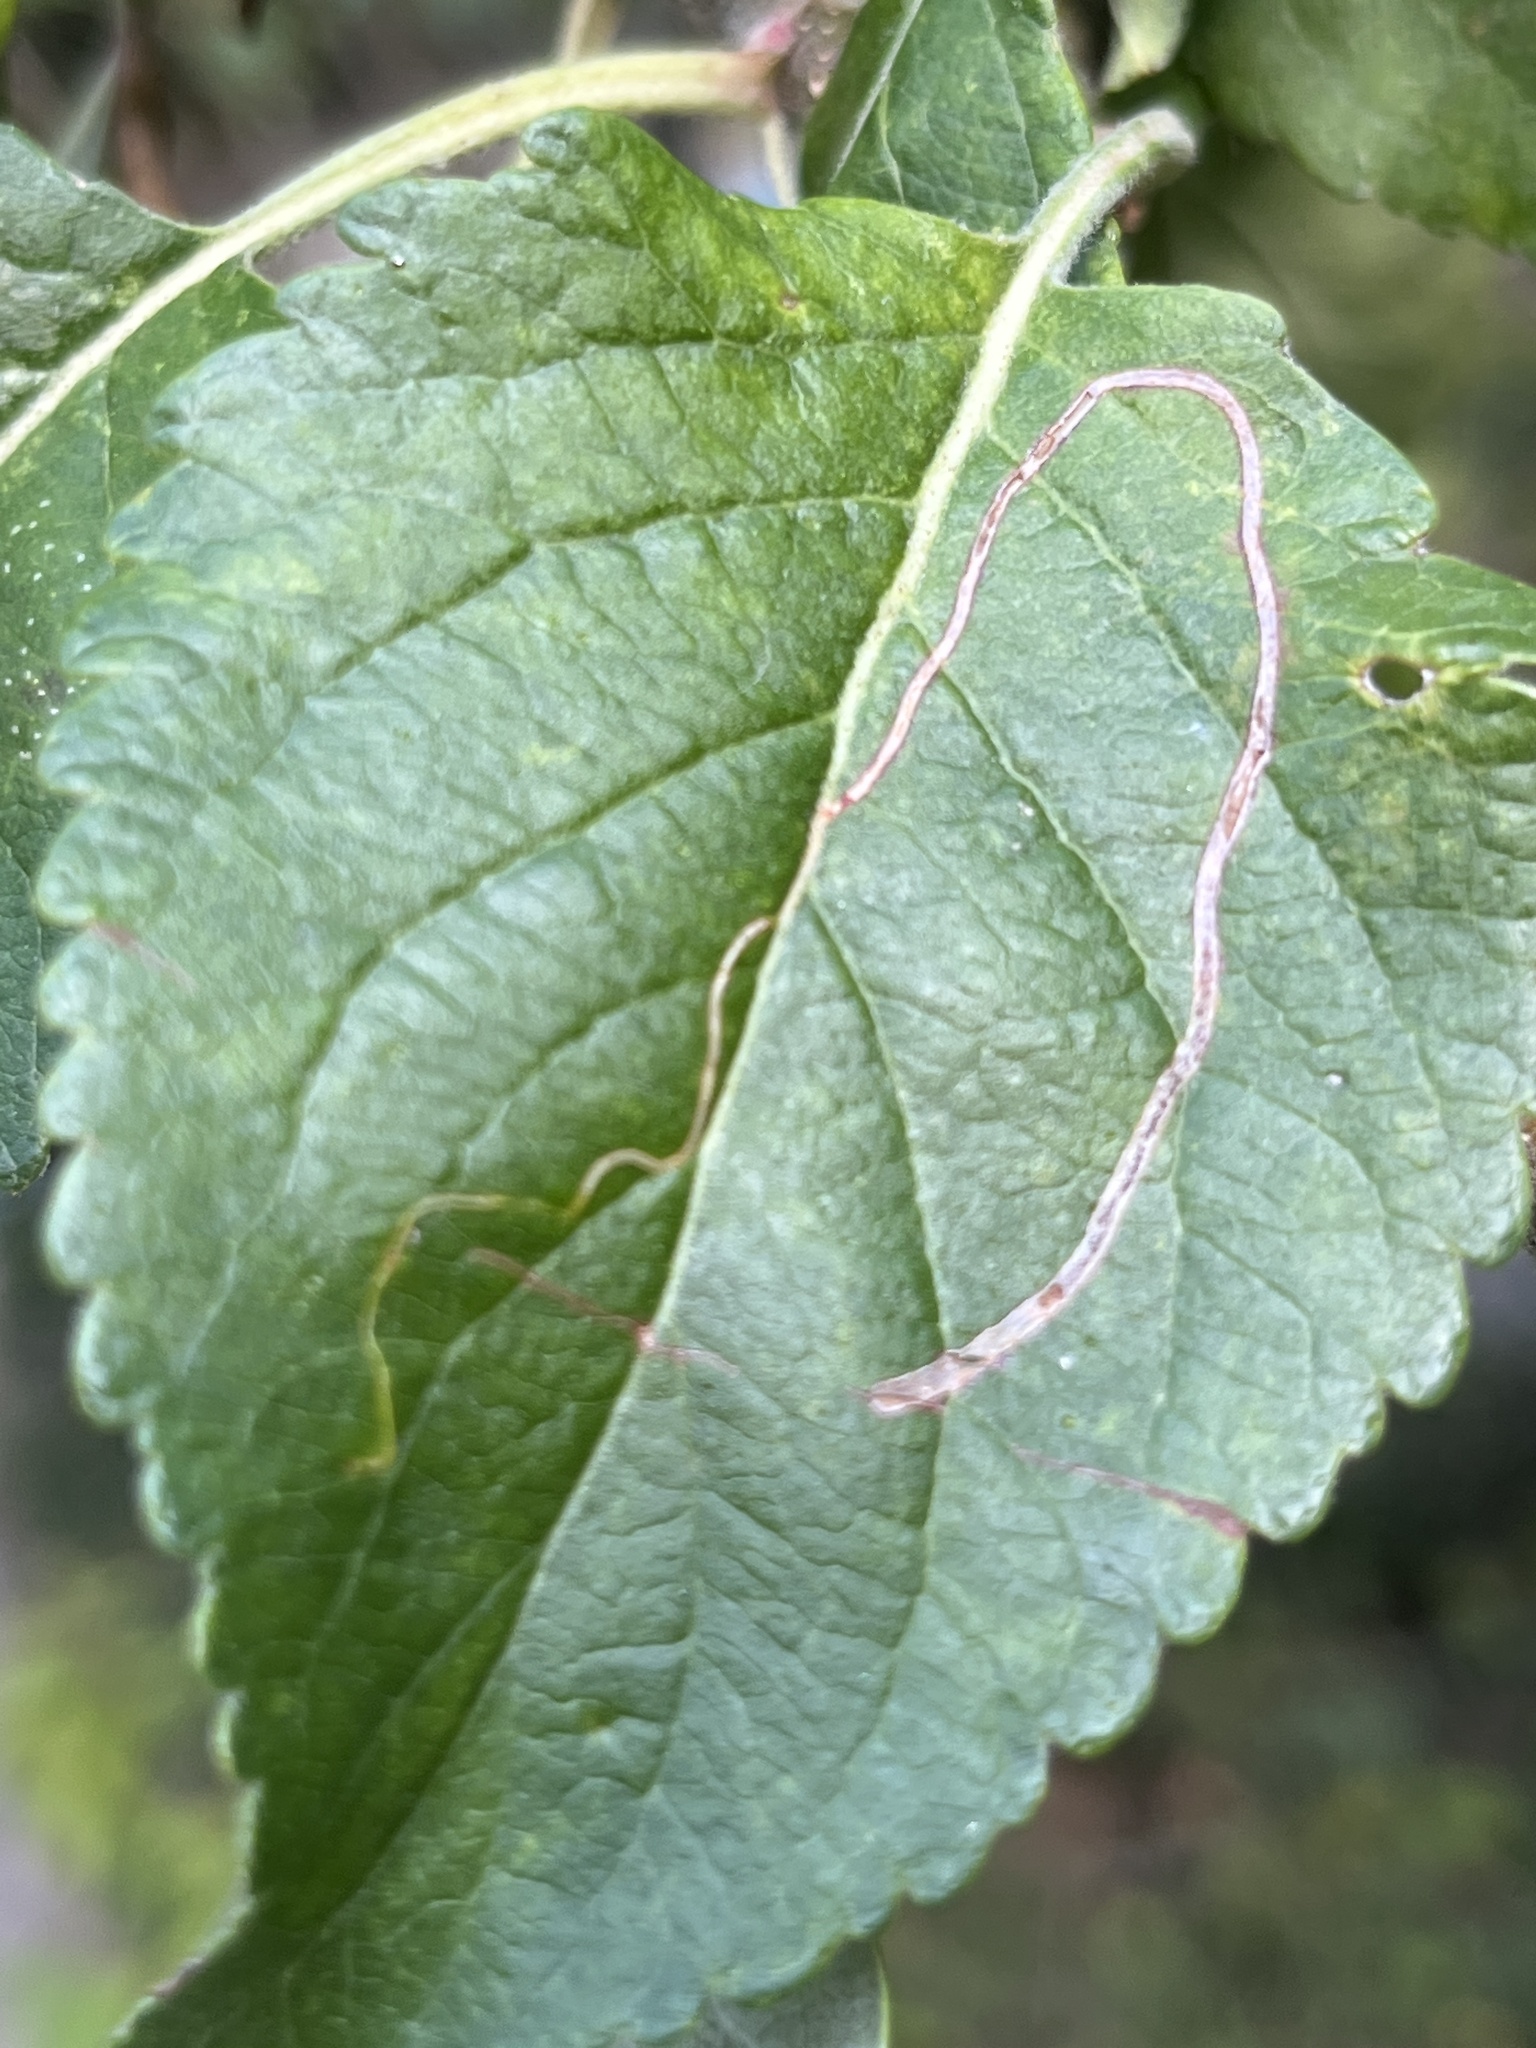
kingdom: Animalia
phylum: Arthropoda
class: Insecta
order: Lepidoptera
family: Lyonetiidae
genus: Lyonetia
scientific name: Lyonetia clerkella
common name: Apple leaf miner
